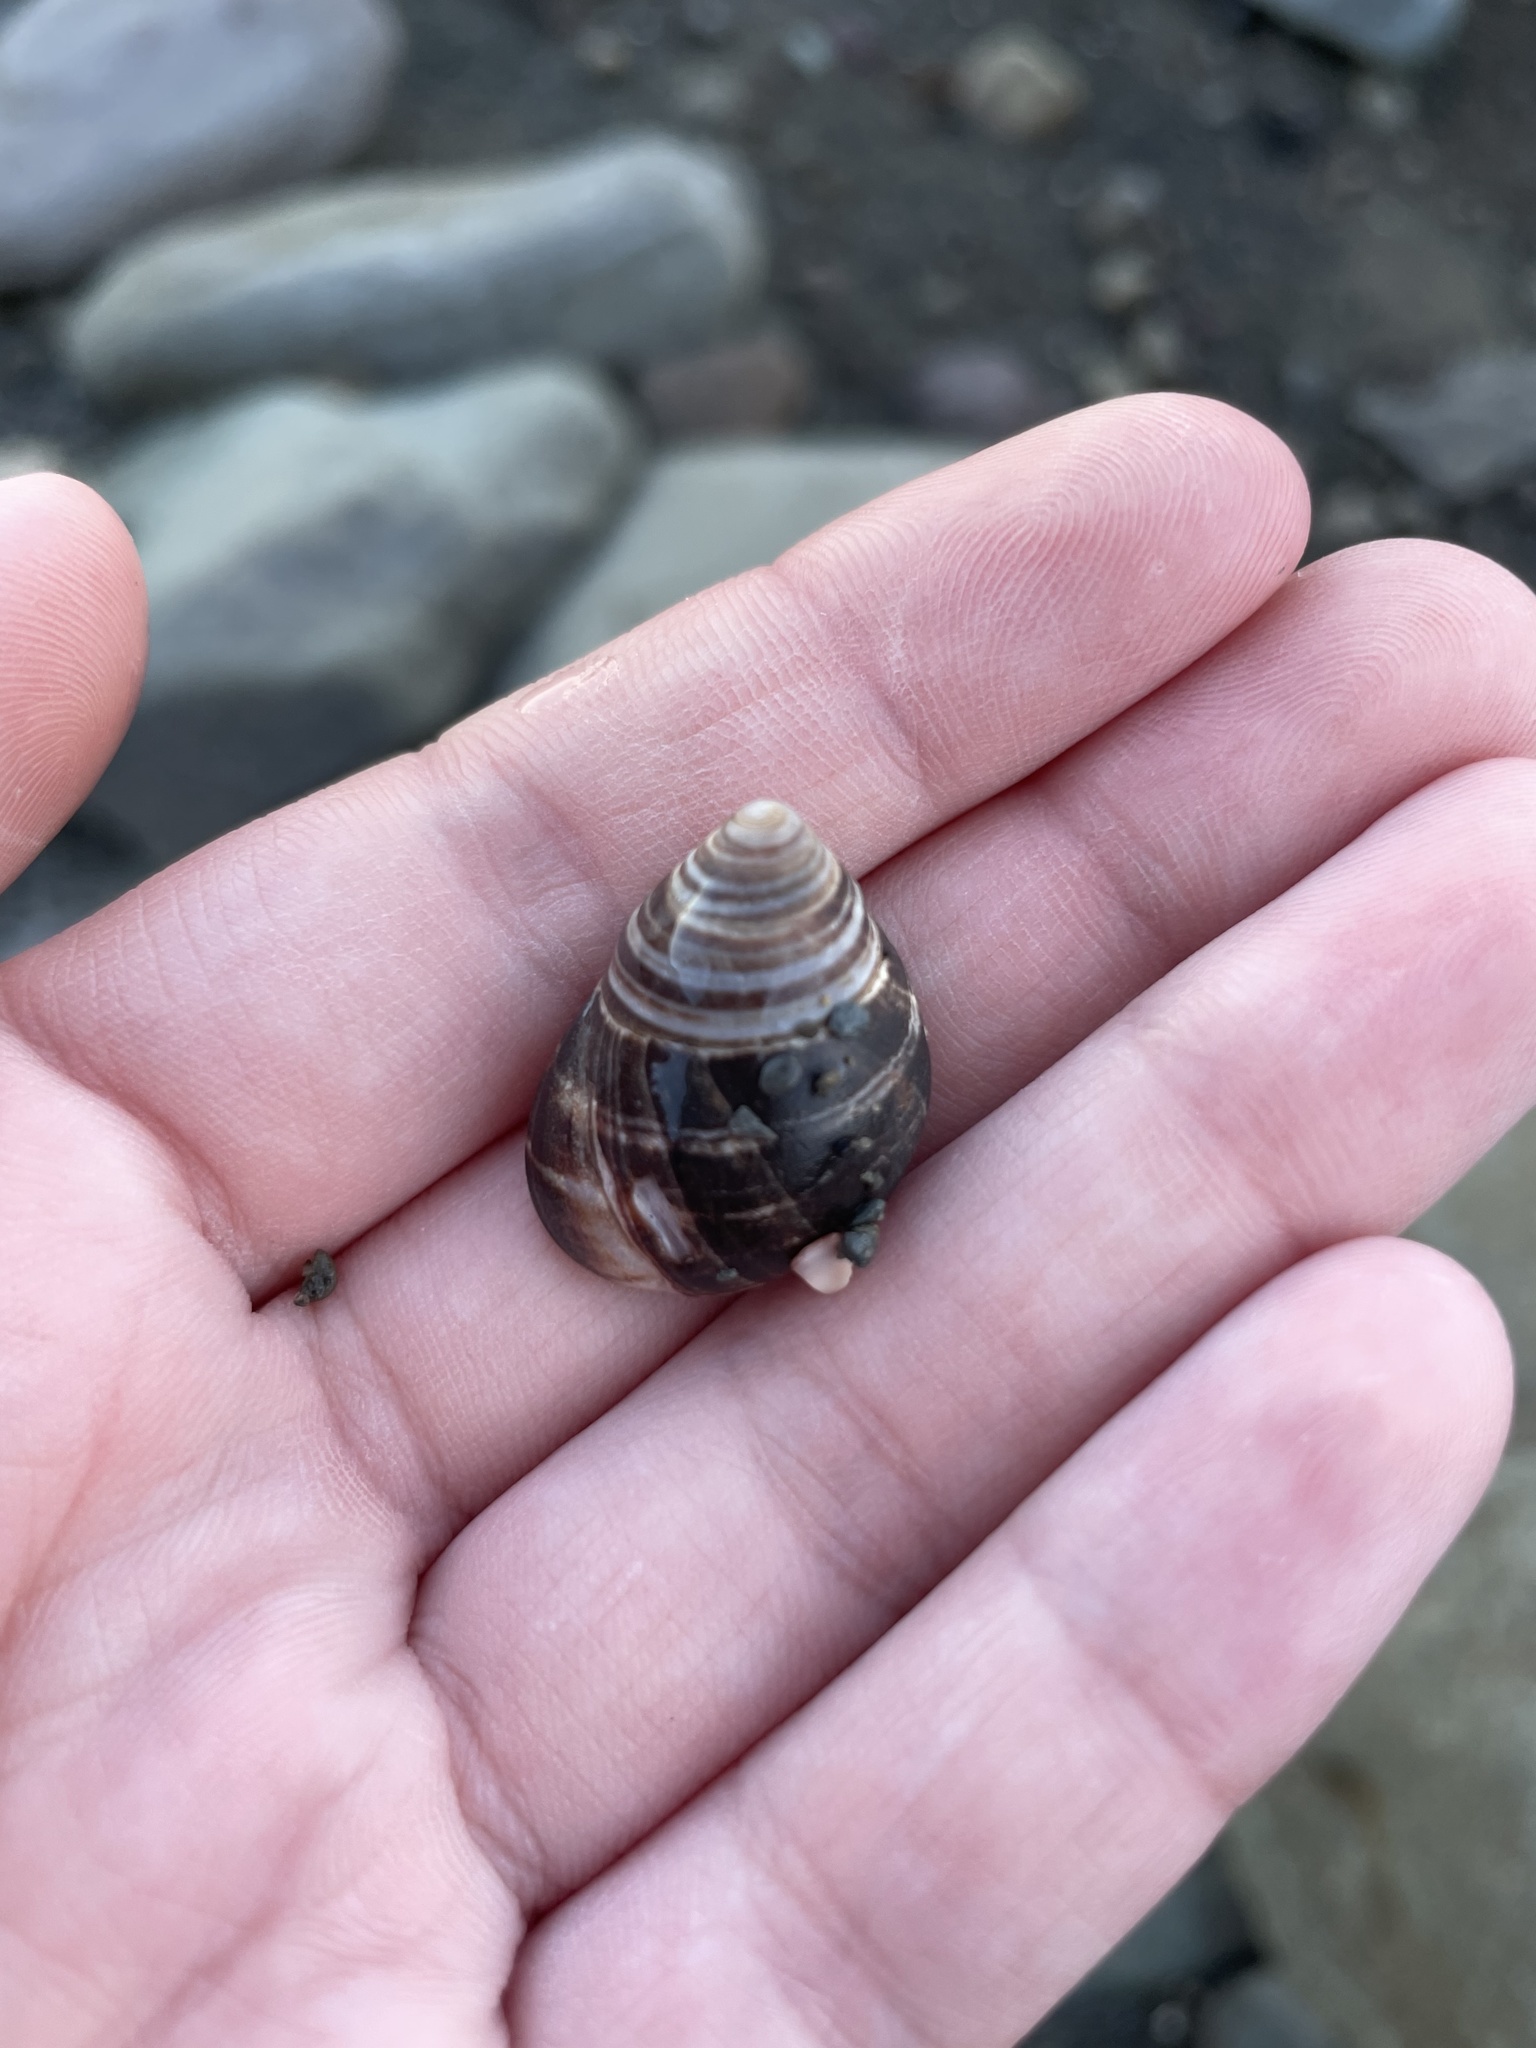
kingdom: Animalia
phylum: Mollusca
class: Gastropoda
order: Littorinimorpha
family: Littorinidae
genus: Littorina
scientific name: Littorina littorea
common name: Common periwinkle
